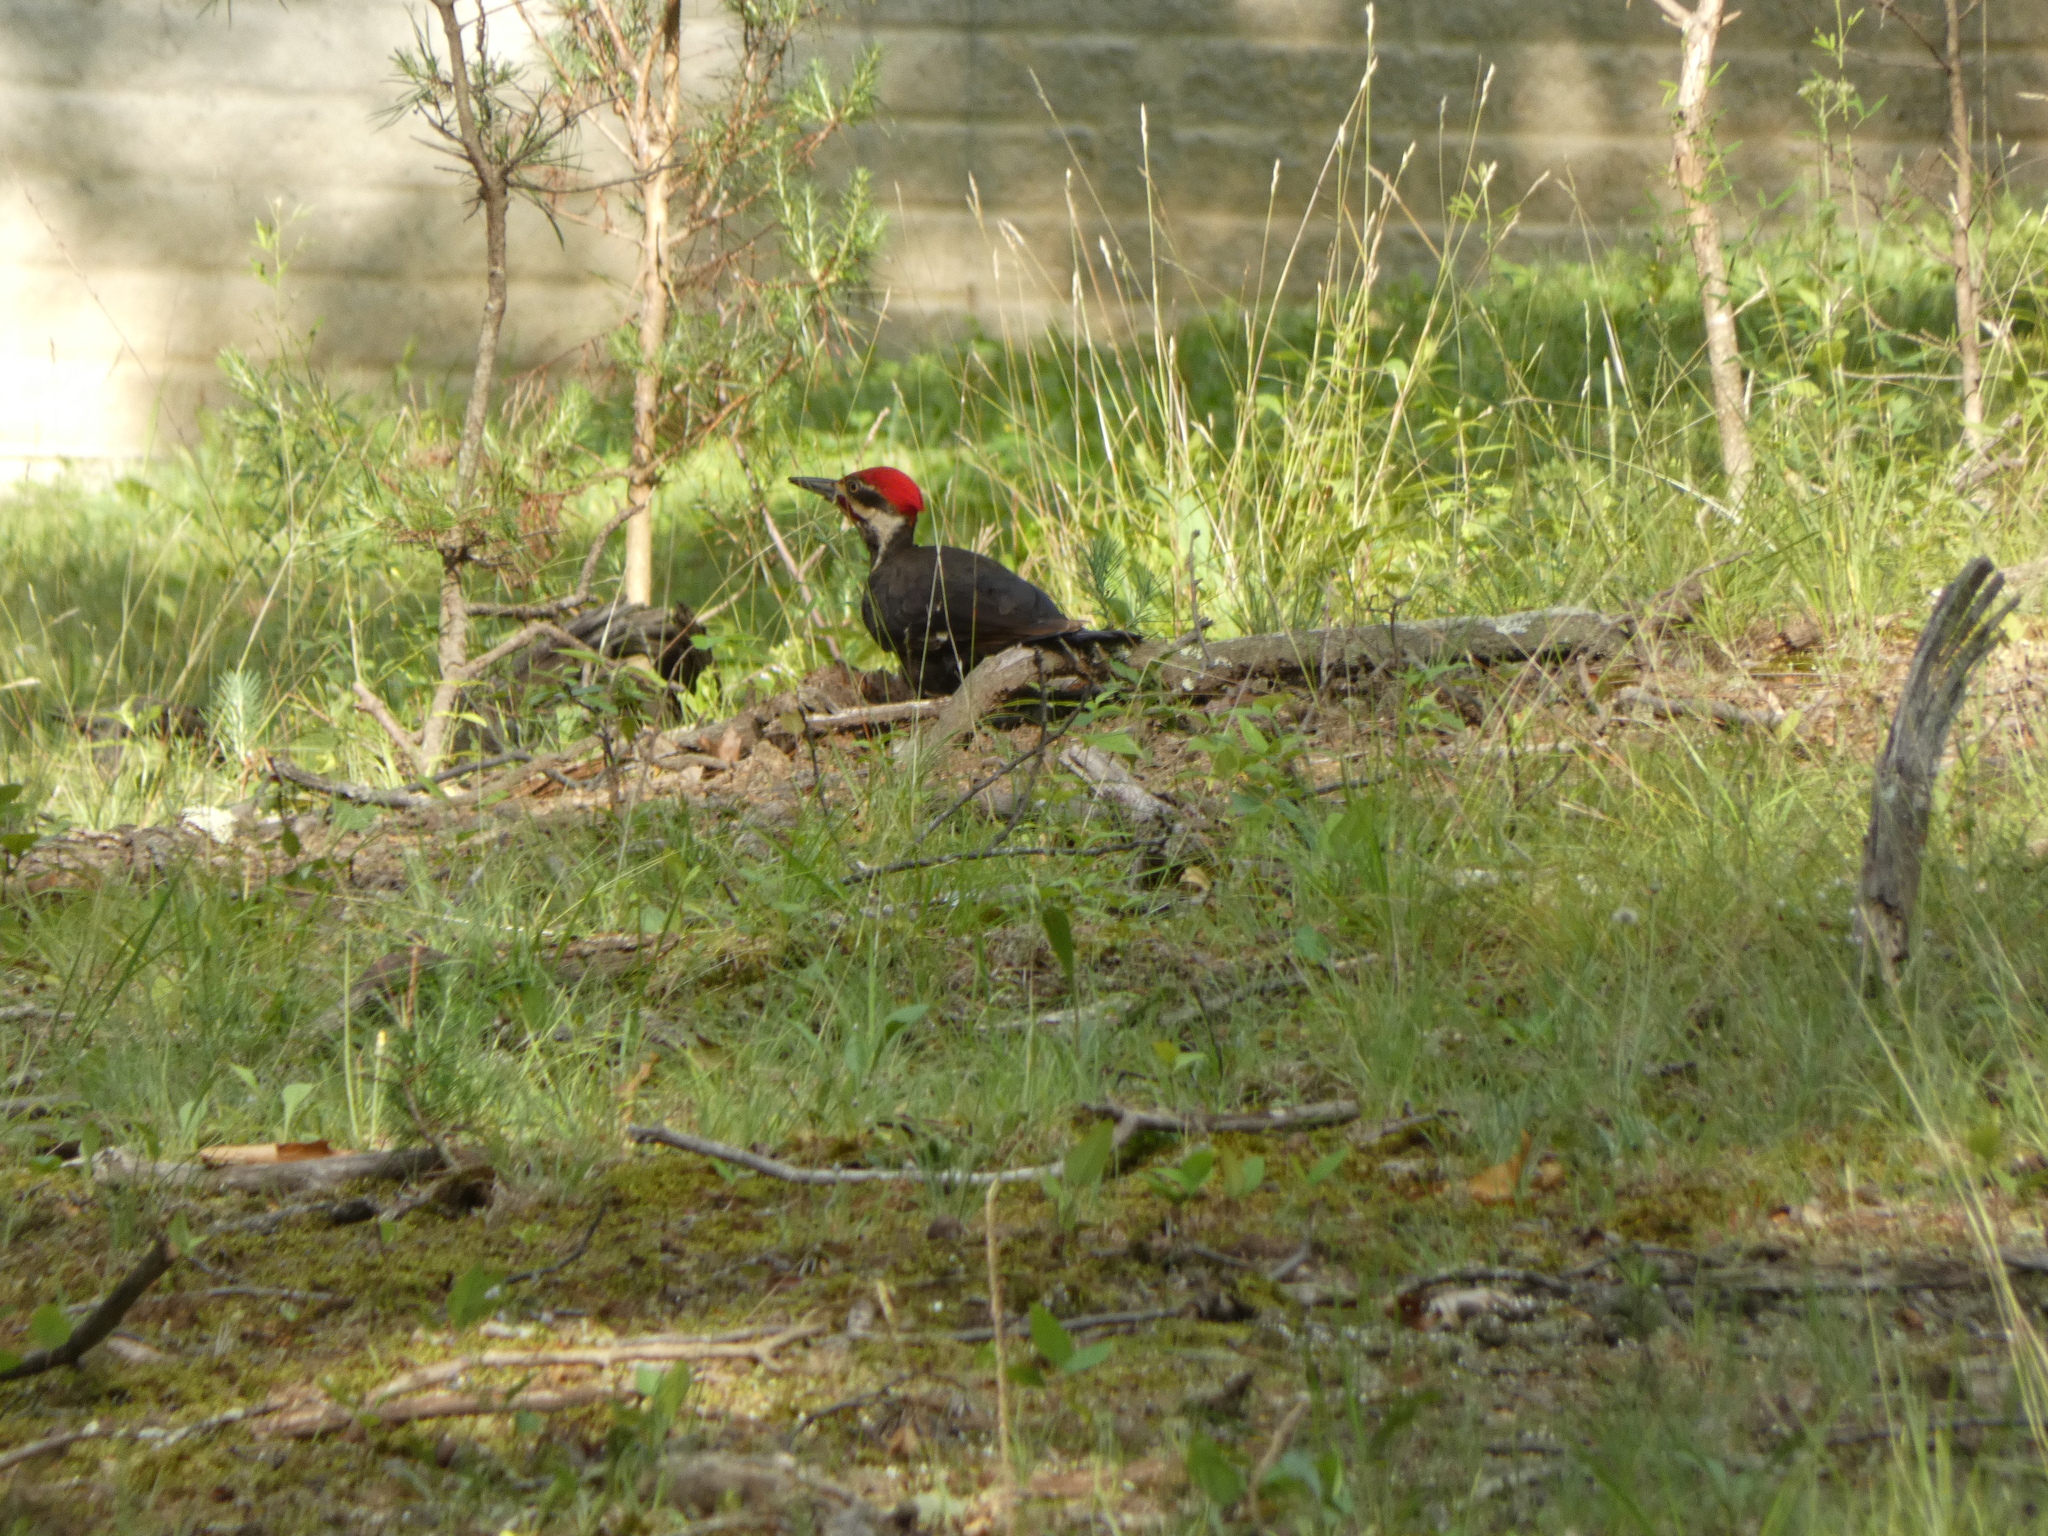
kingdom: Animalia
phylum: Chordata
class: Aves
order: Piciformes
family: Picidae
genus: Dryocopus
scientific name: Dryocopus pileatus
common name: Pileated woodpecker
